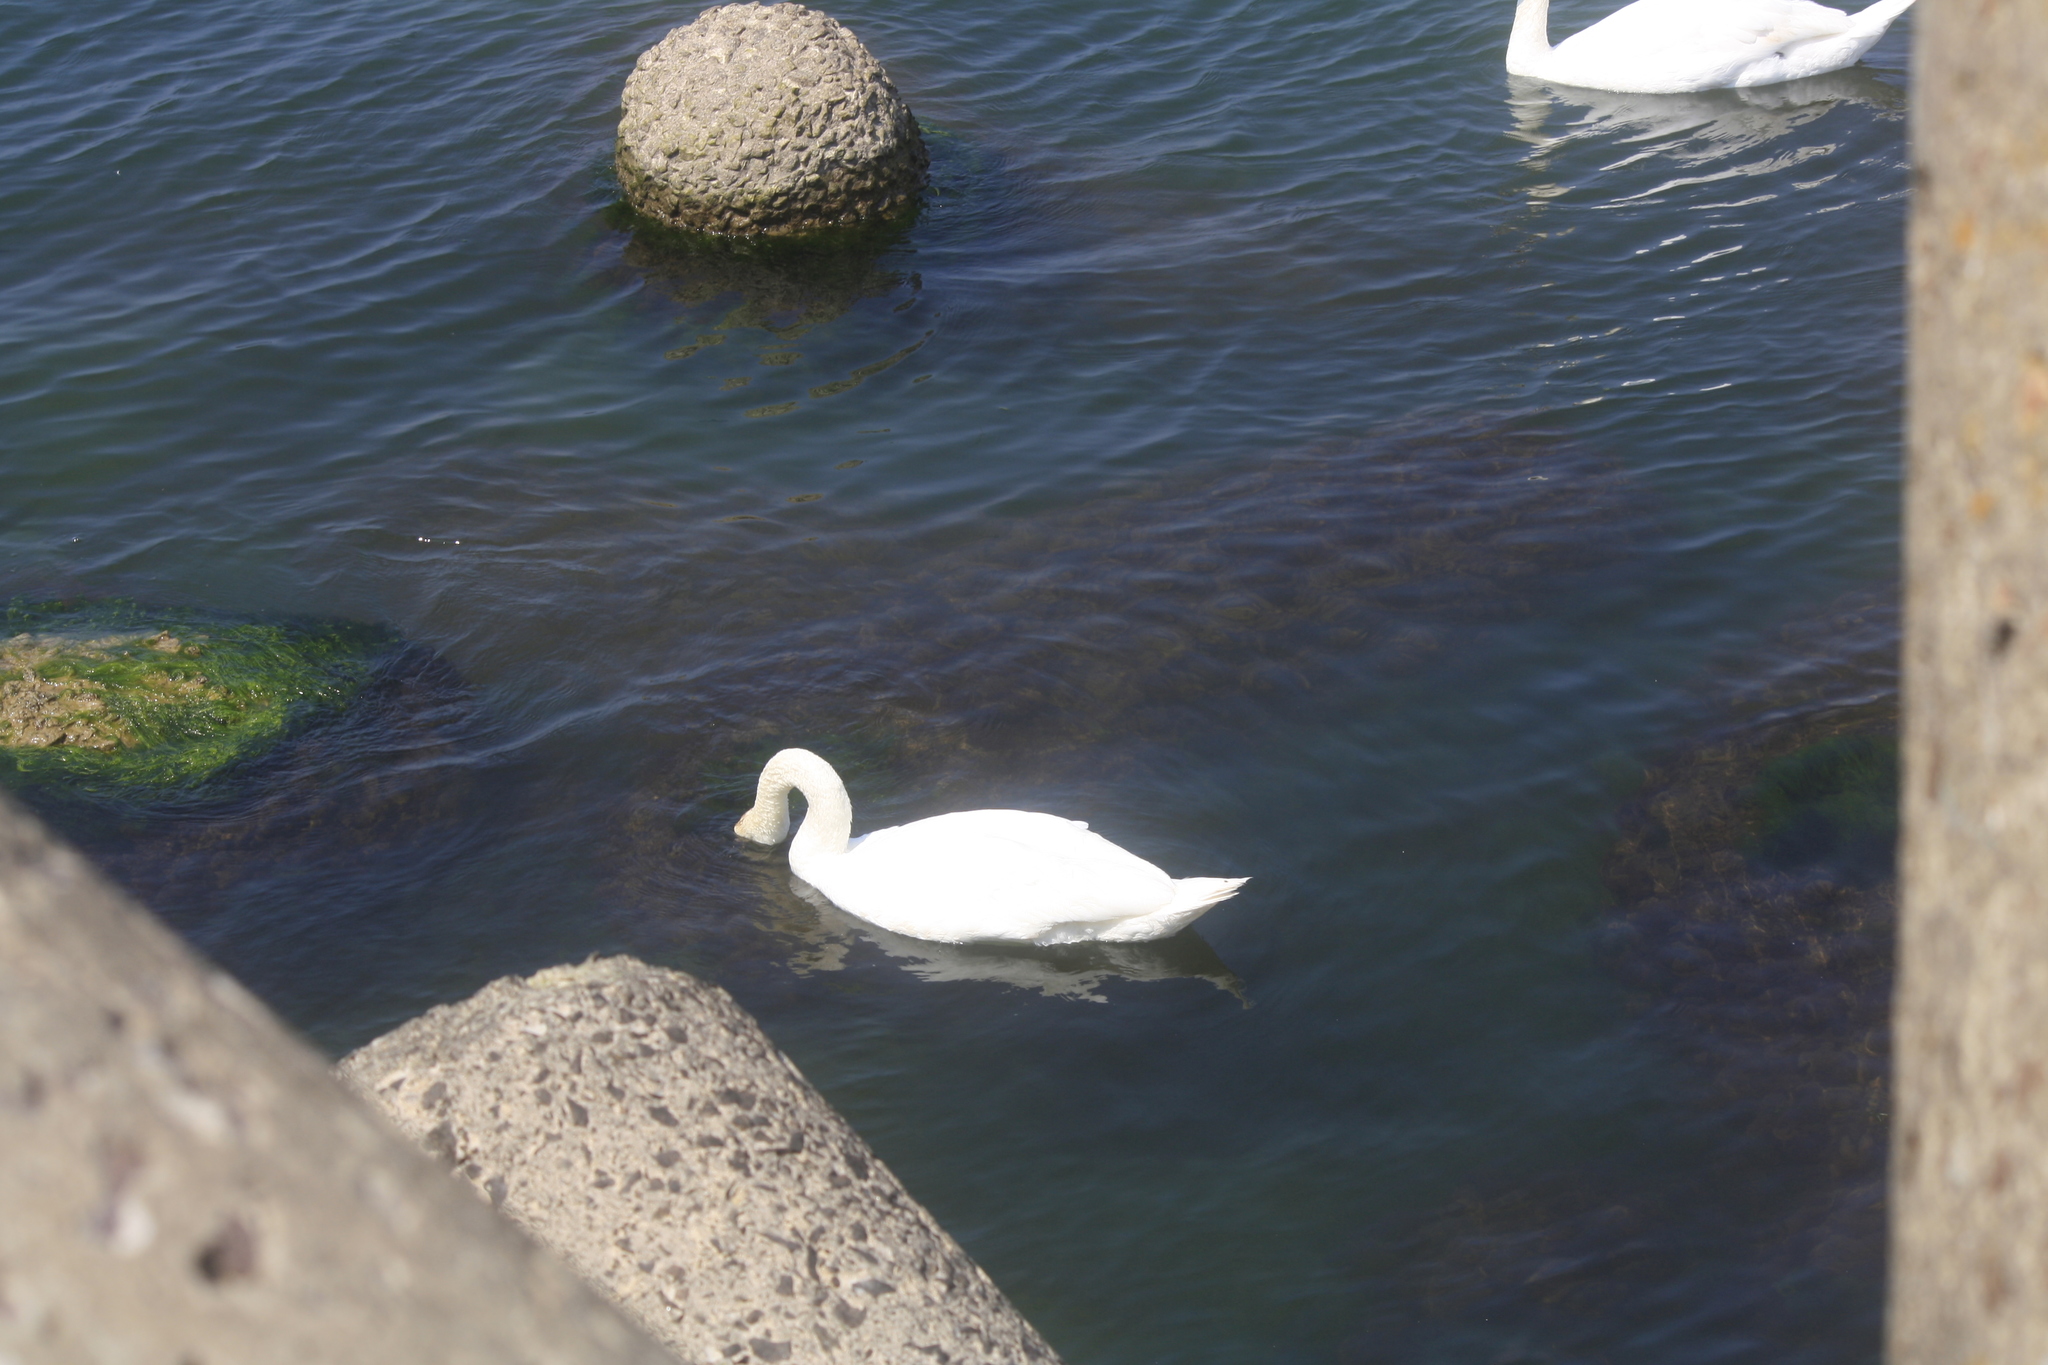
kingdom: Animalia
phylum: Chordata
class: Aves
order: Anseriformes
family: Anatidae
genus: Cygnus
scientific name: Cygnus olor
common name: Mute swan
